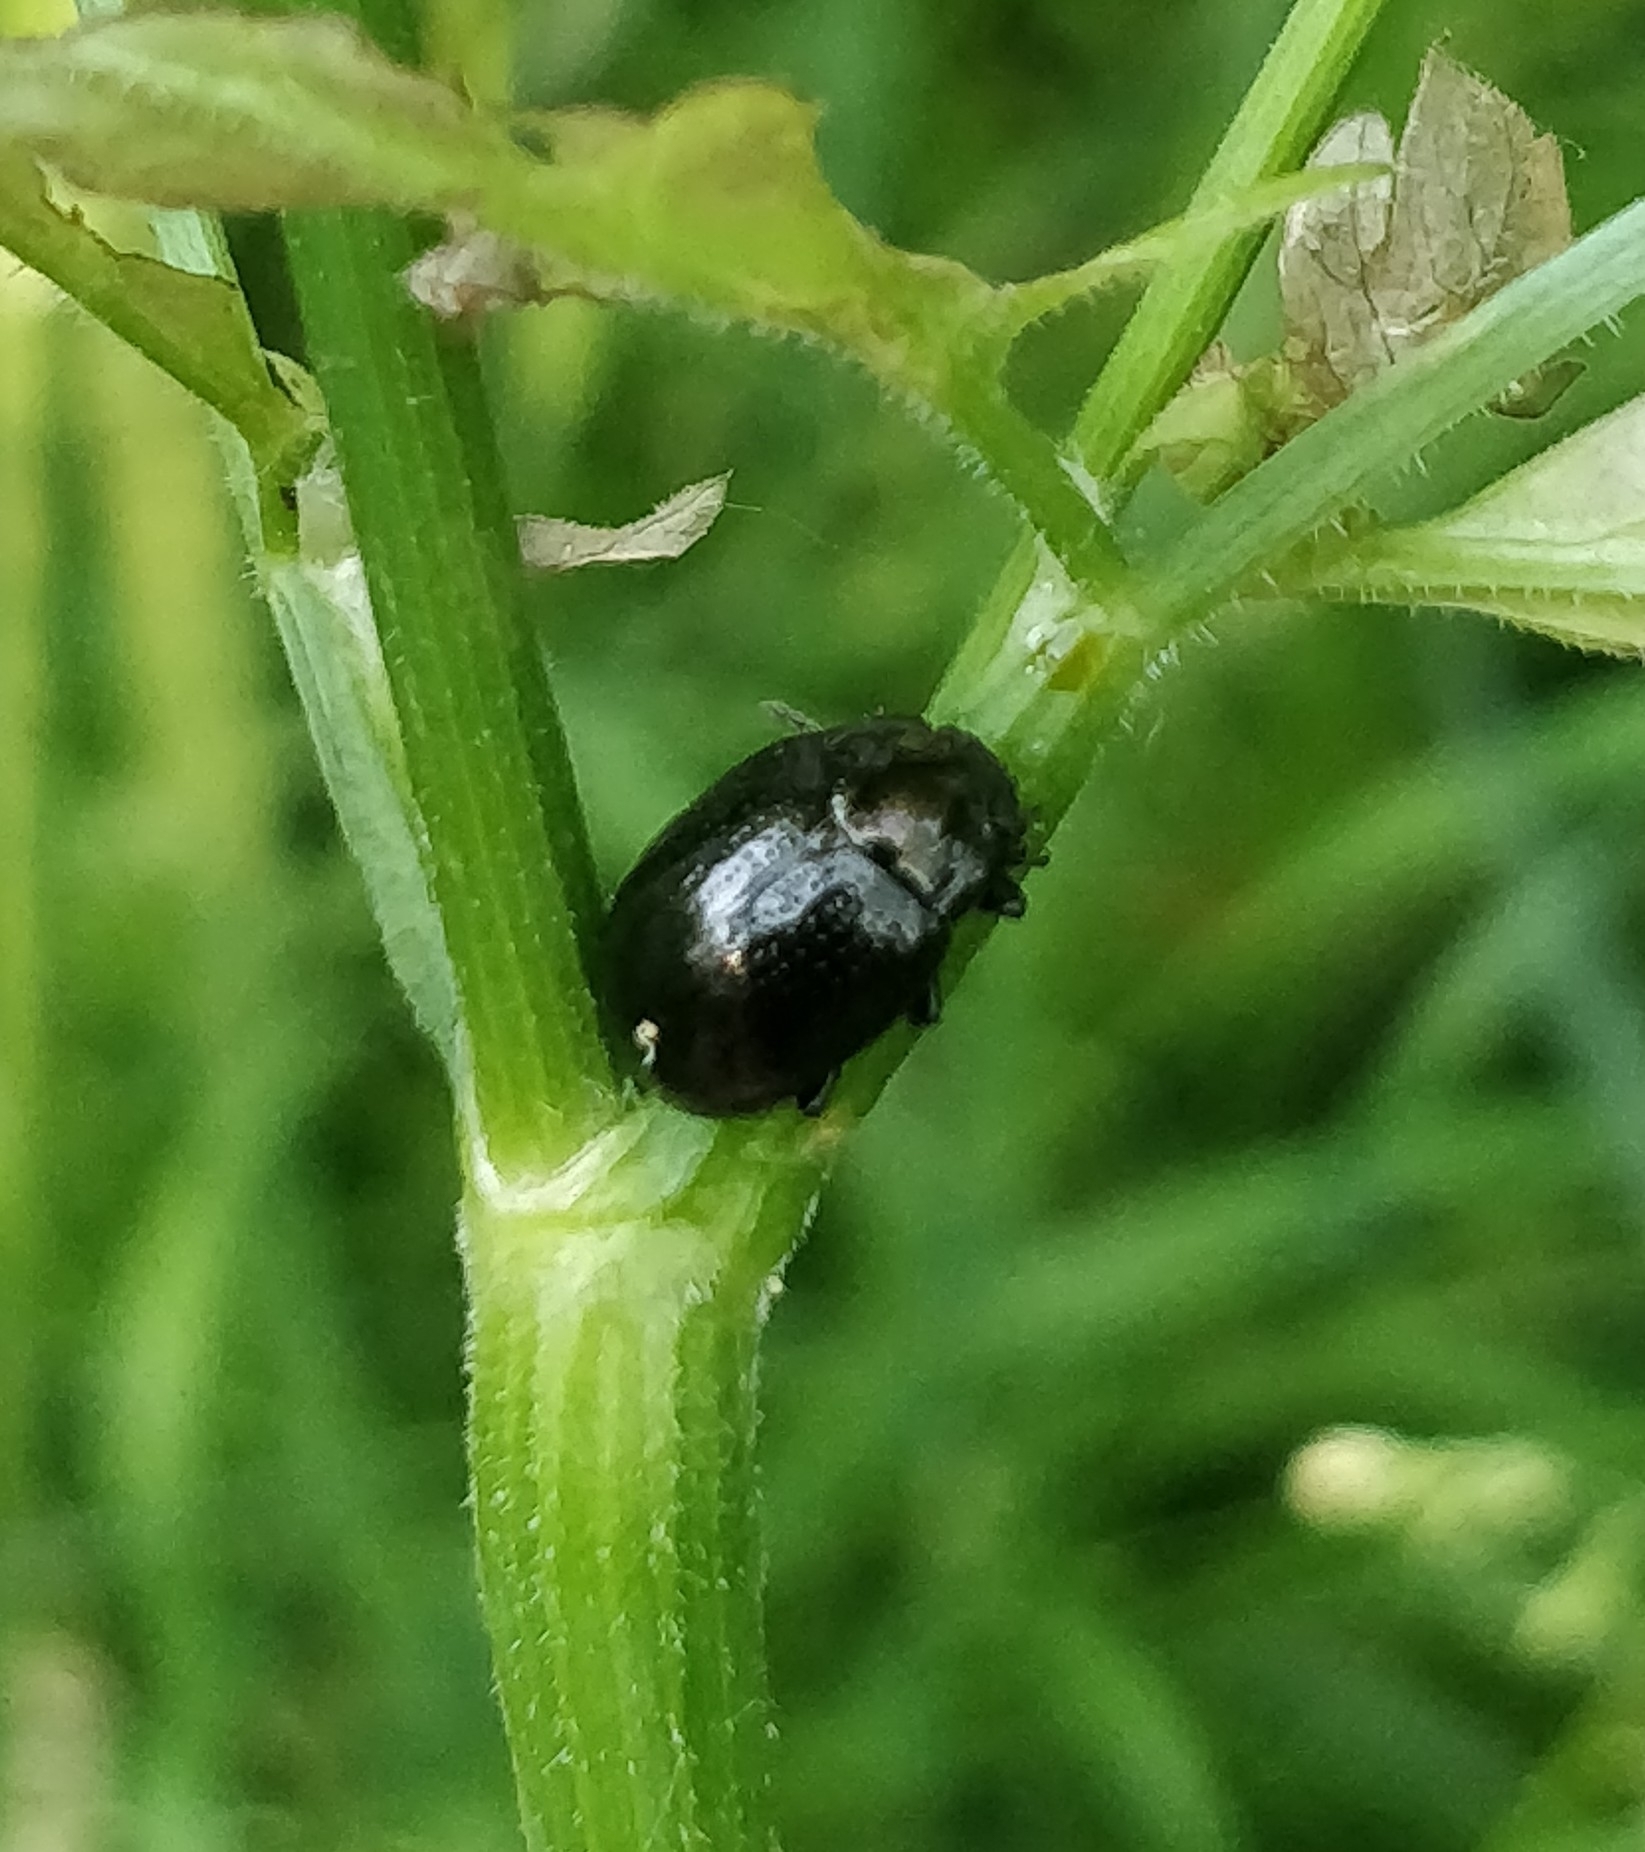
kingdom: Animalia
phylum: Arthropoda
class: Insecta
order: Coleoptera
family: Chrysomelidae
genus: Chrysolina
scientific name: Chrysolina oricalcia
